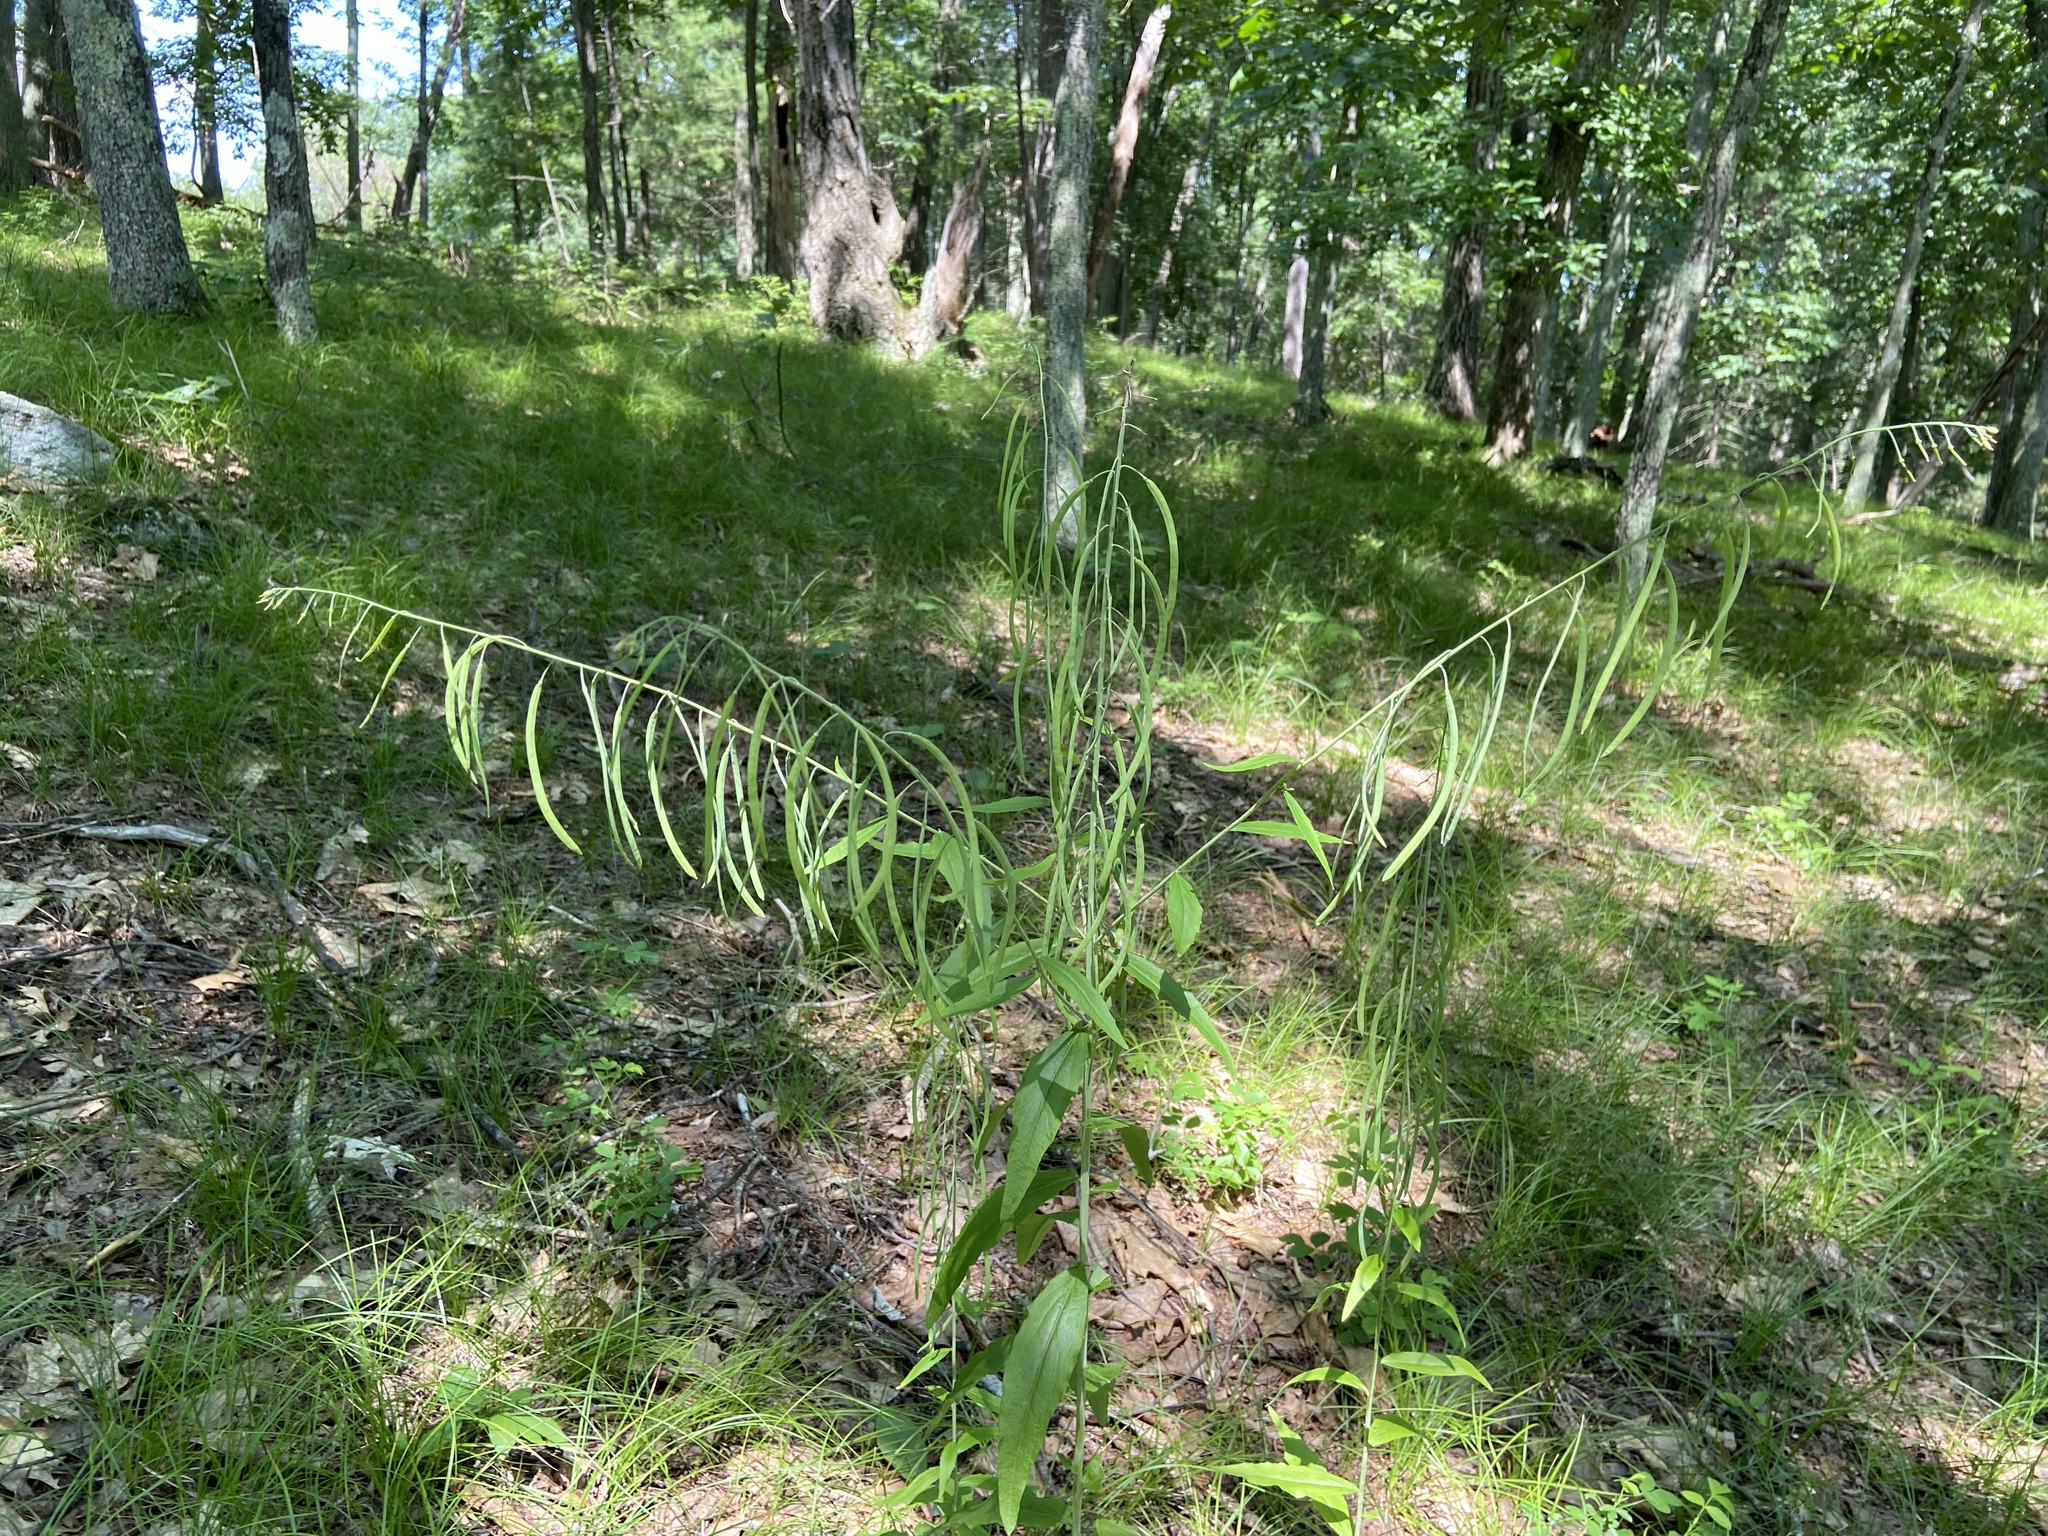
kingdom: Plantae
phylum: Tracheophyta
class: Magnoliopsida
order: Brassicales
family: Brassicaceae
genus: Borodinia
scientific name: Borodinia canadensis
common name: Sicklepod
